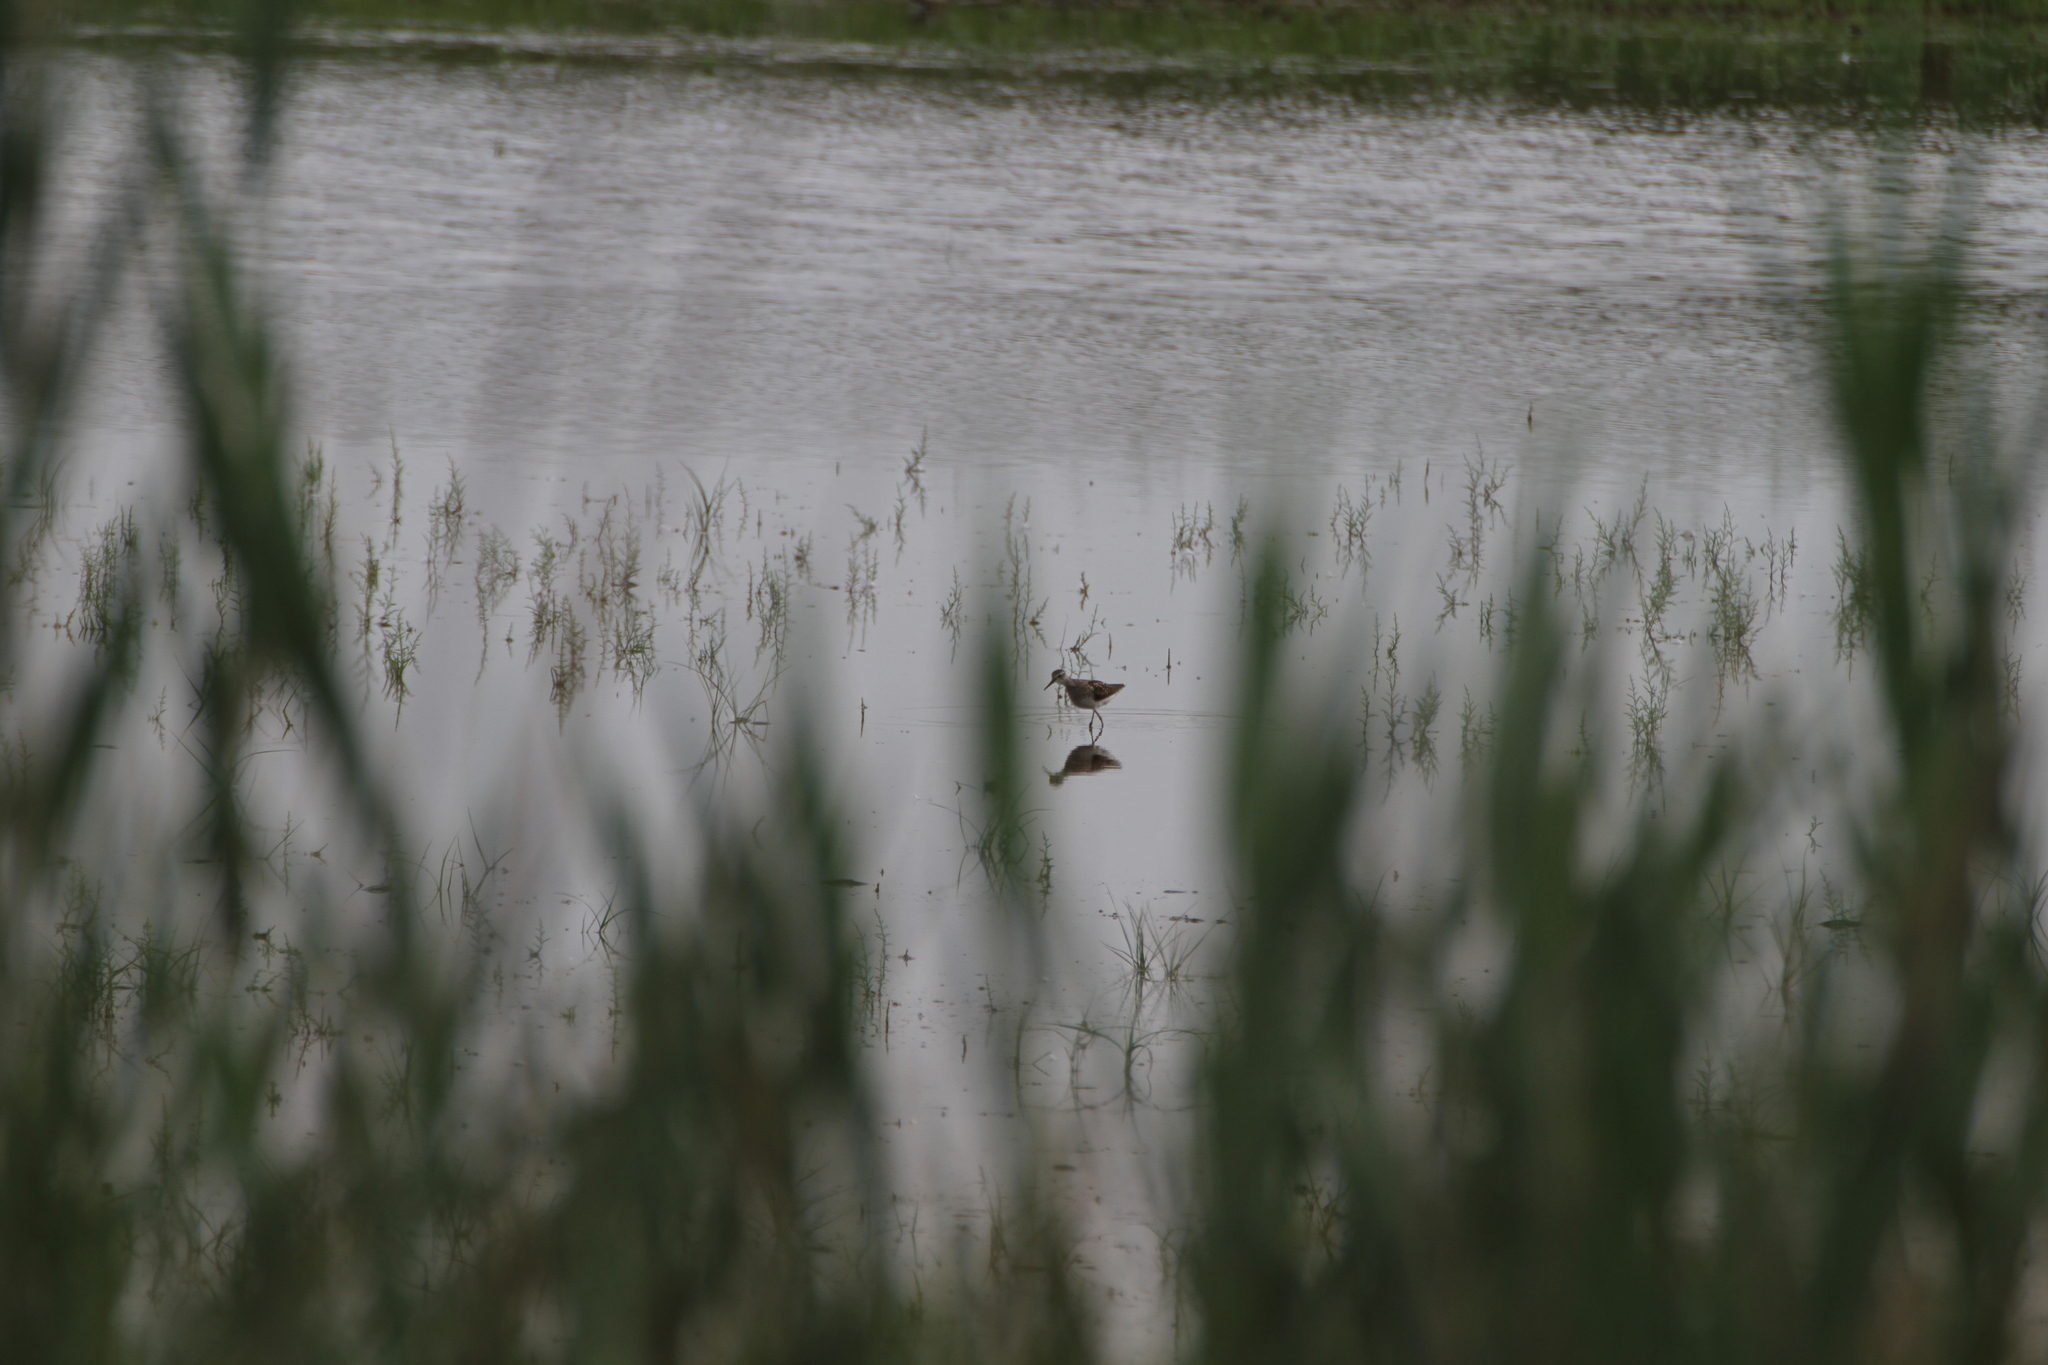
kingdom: Animalia
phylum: Chordata
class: Aves
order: Charadriiformes
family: Scolopacidae
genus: Tringa
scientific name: Tringa glareola
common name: Wood sandpiper
